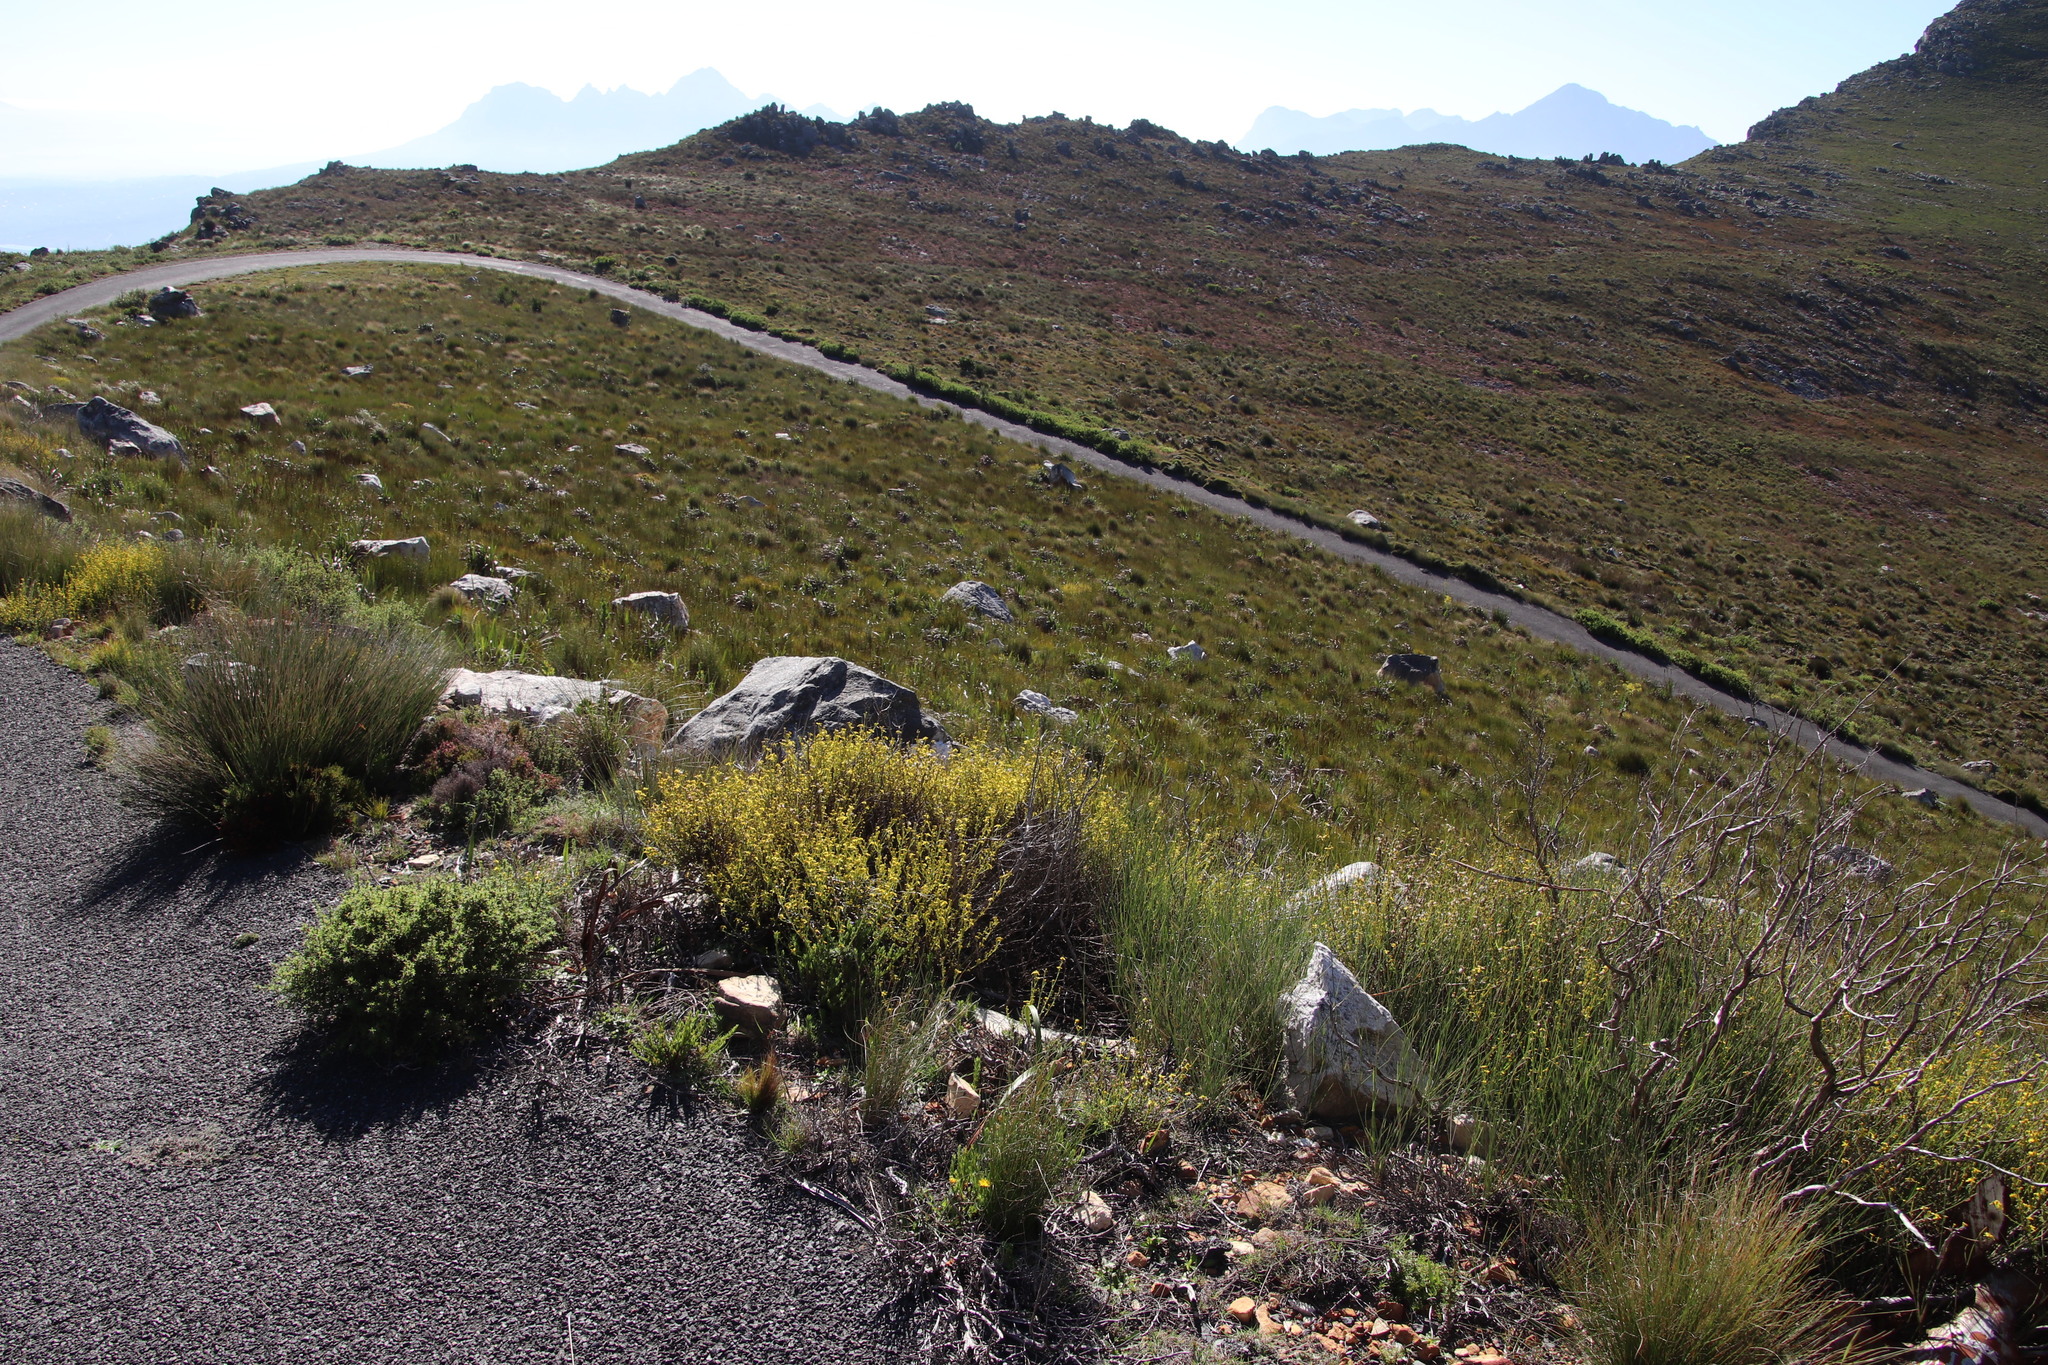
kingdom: Plantae
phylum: Tracheophyta
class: Magnoliopsida
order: Asterales
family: Asteraceae
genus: Senecio
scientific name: Senecio pubigerus
